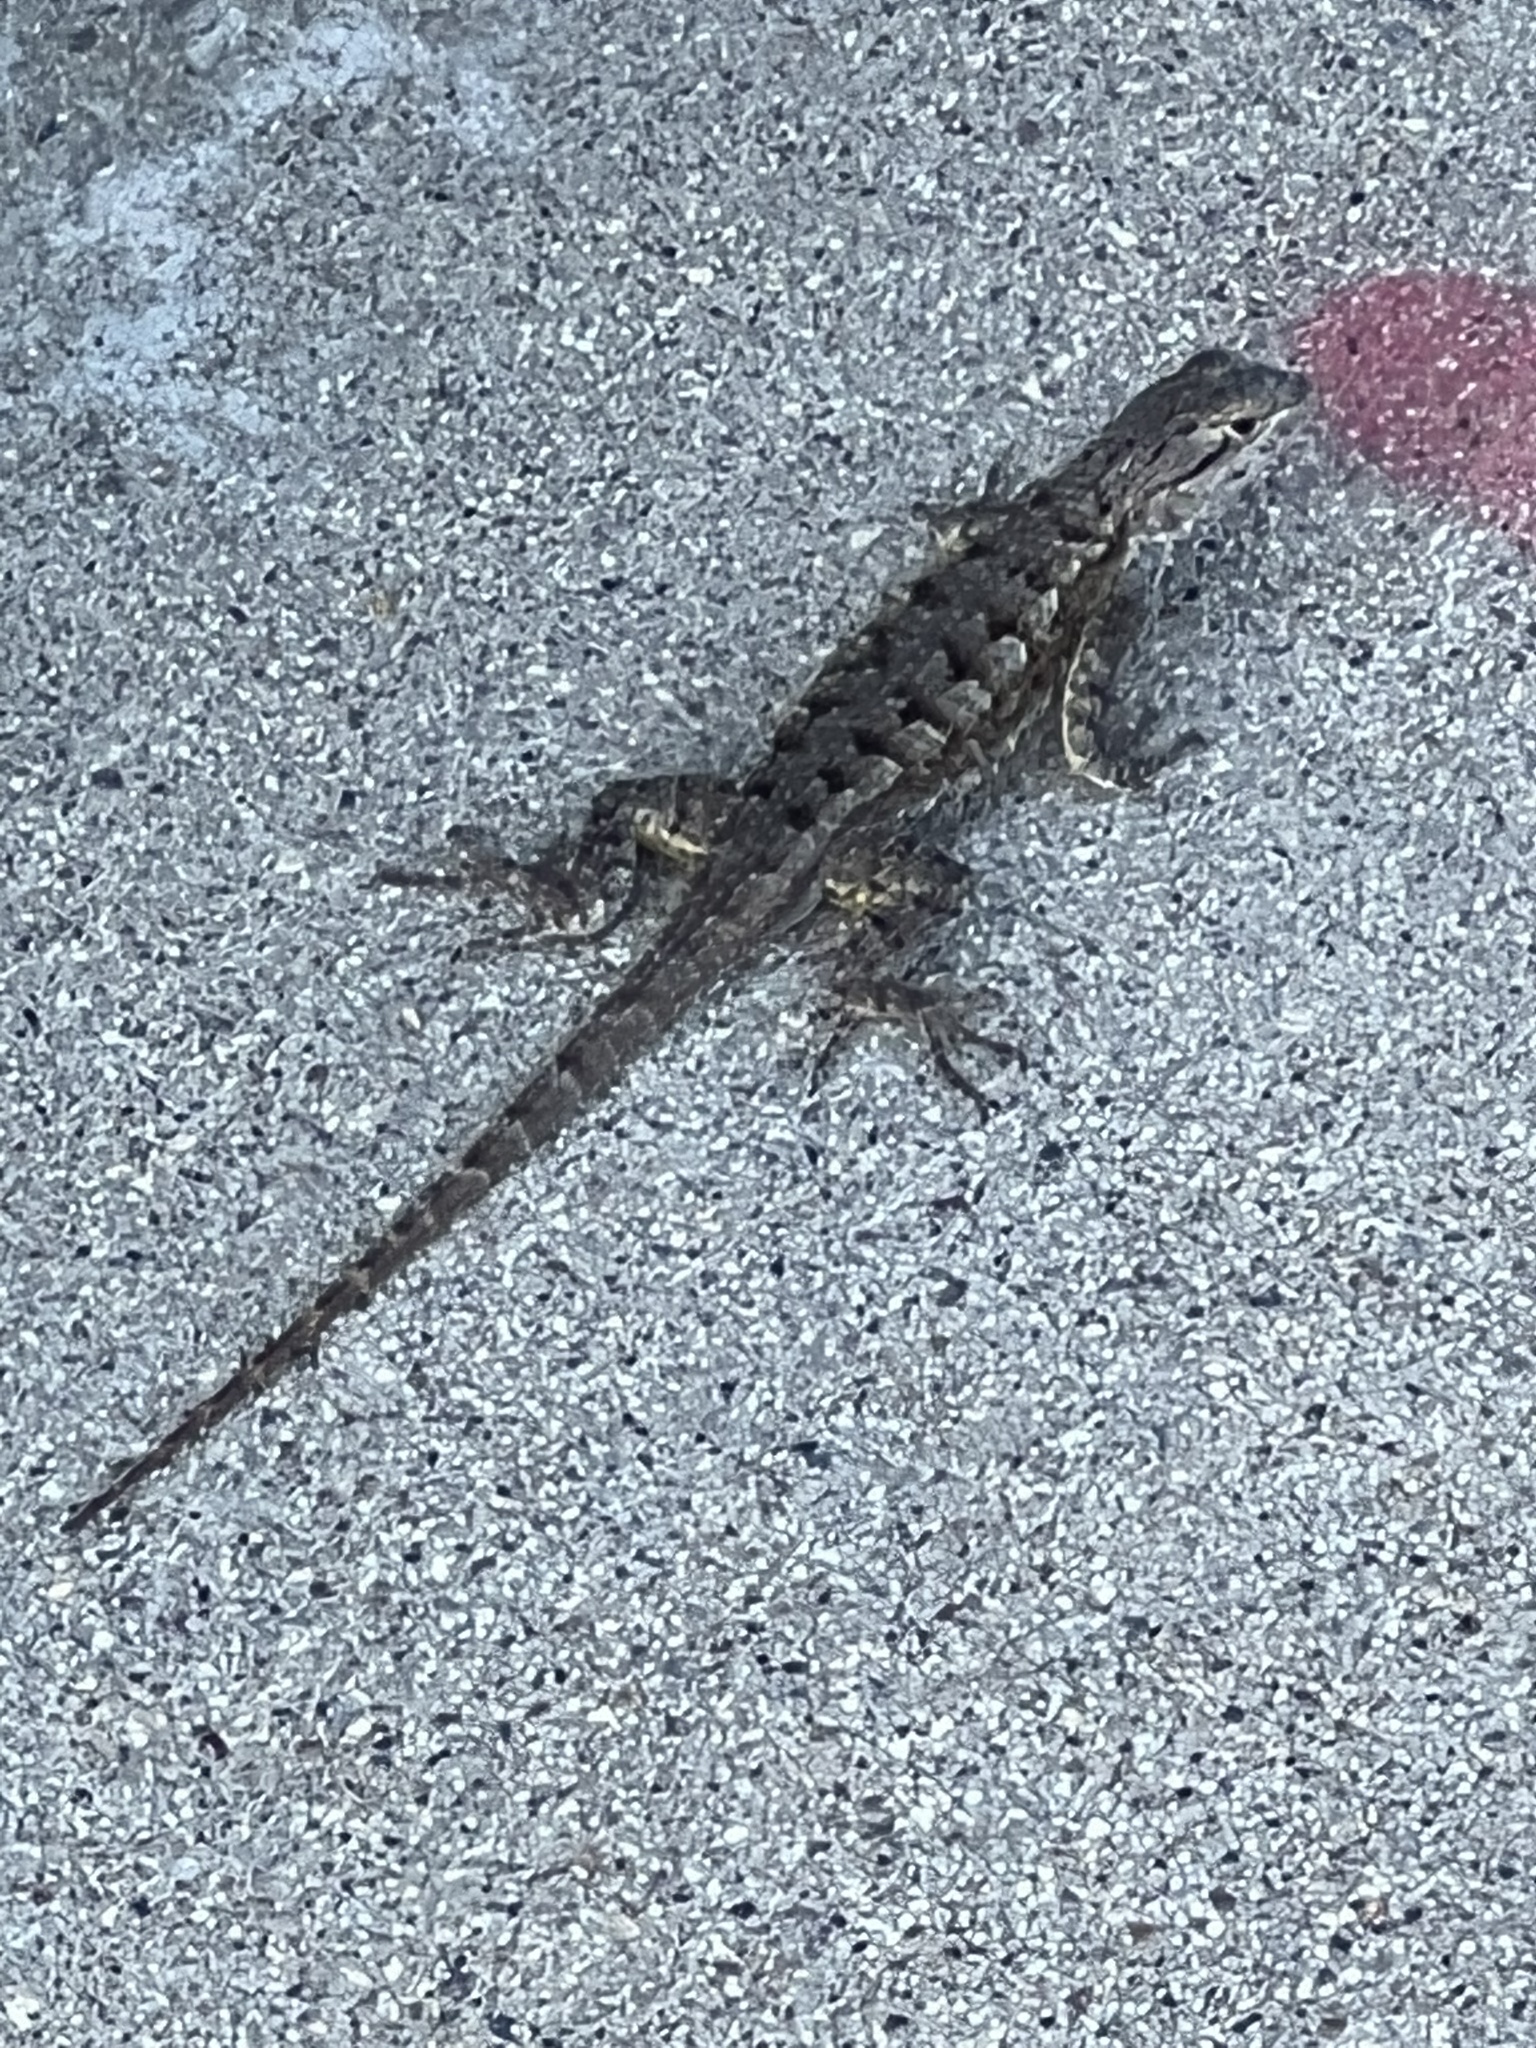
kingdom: Animalia
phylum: Chordata
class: Squamata
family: Phrynosomatidae
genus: Sceloporus
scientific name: Sceloporus occidentalis
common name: Western fence lizard
